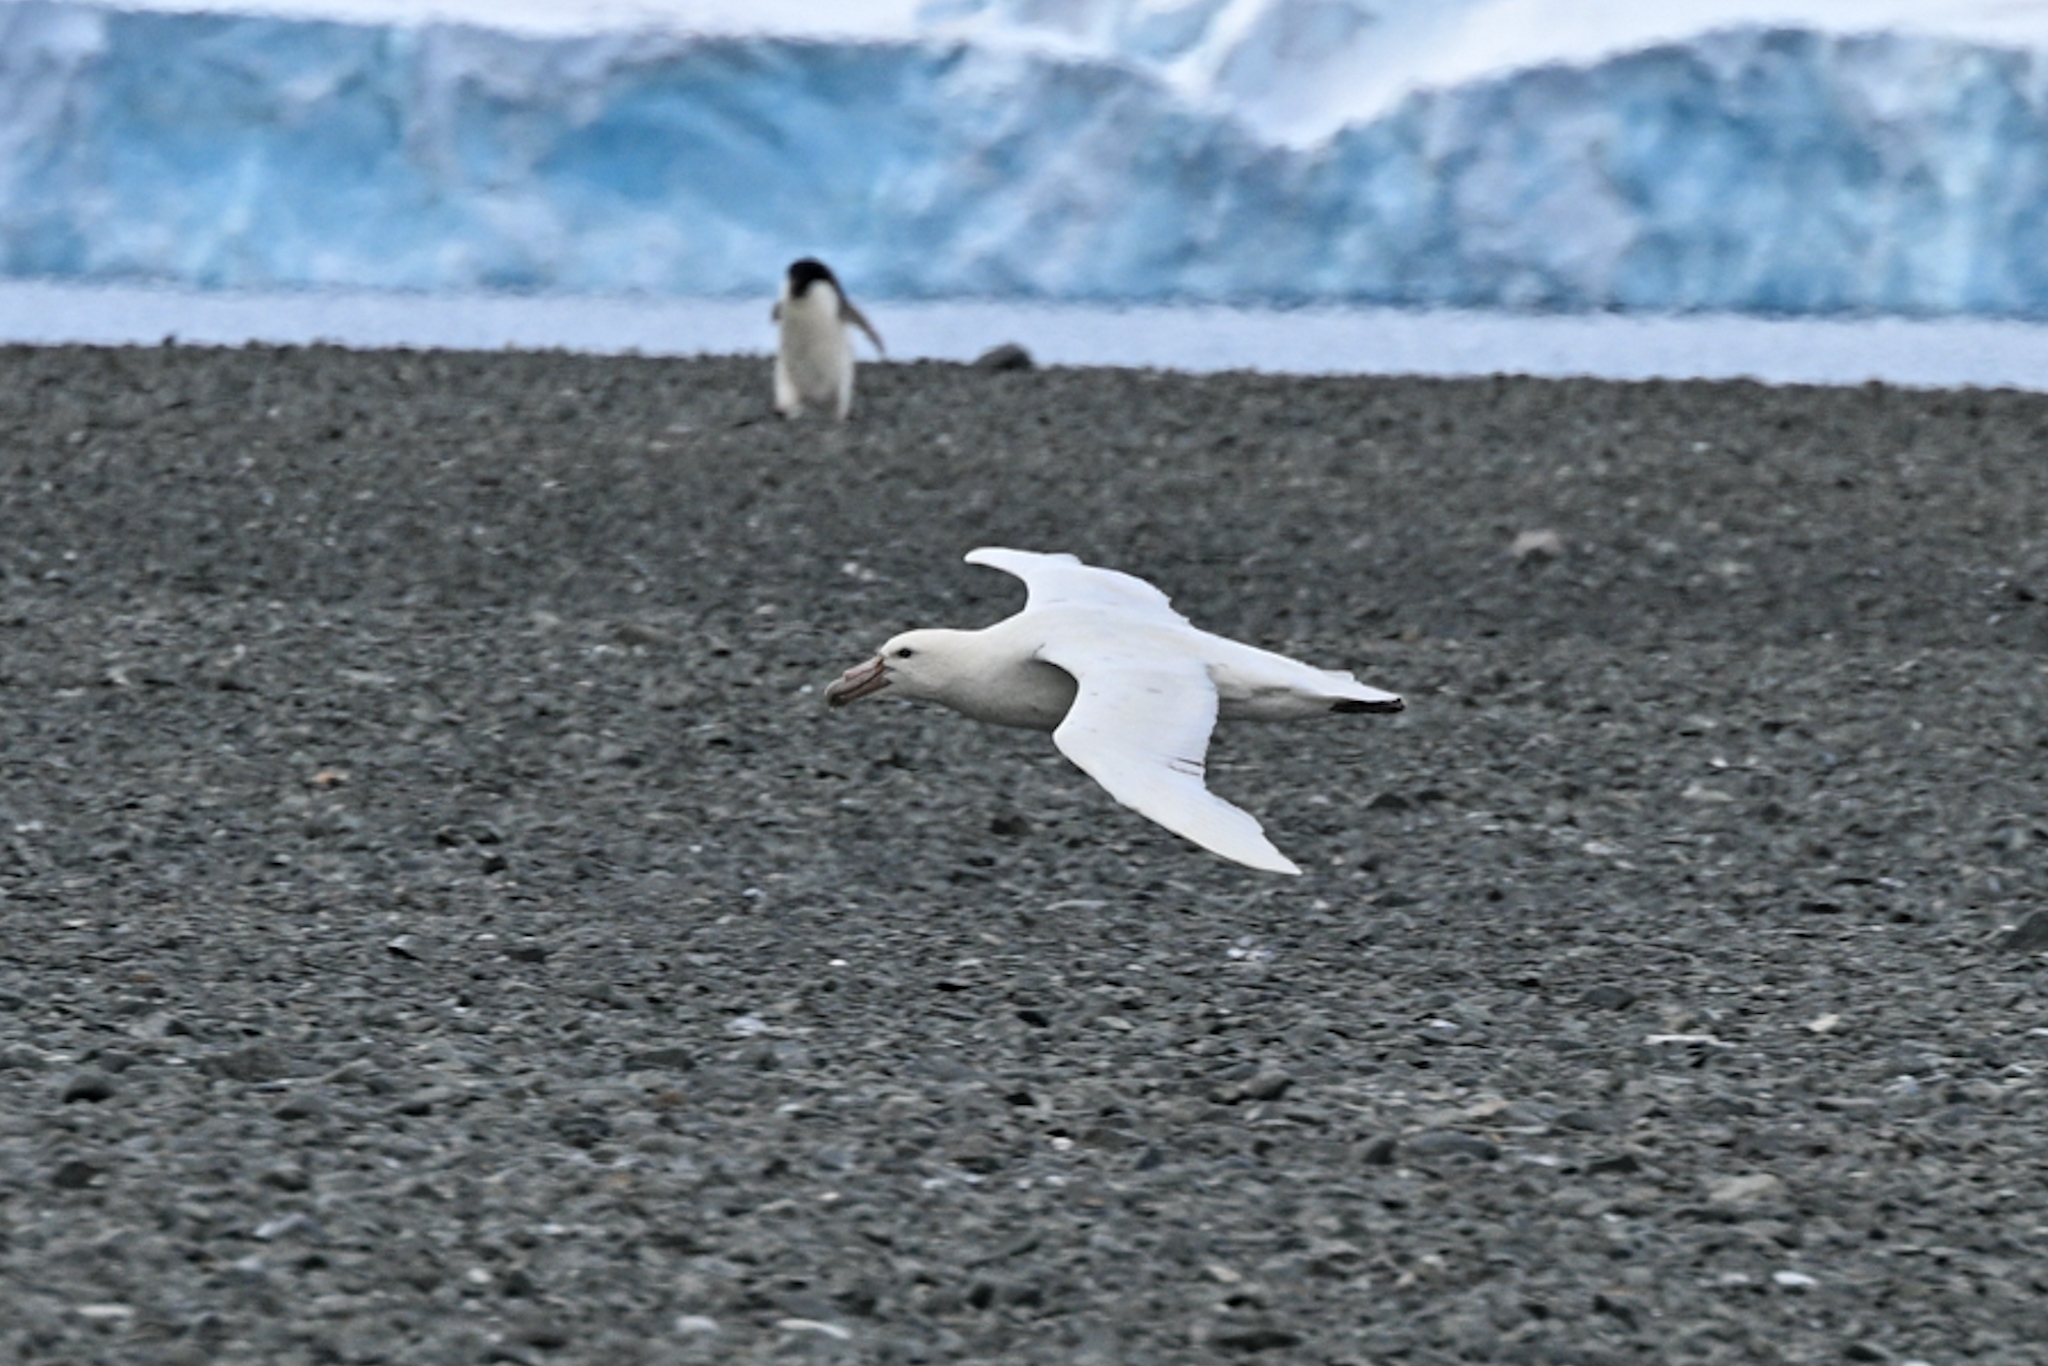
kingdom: Animalia
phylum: Chordata
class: Aves
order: Procellariiformes
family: Procellariidae
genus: Macronectes
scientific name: Macronectes giganteus
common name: Southern giant petrel
